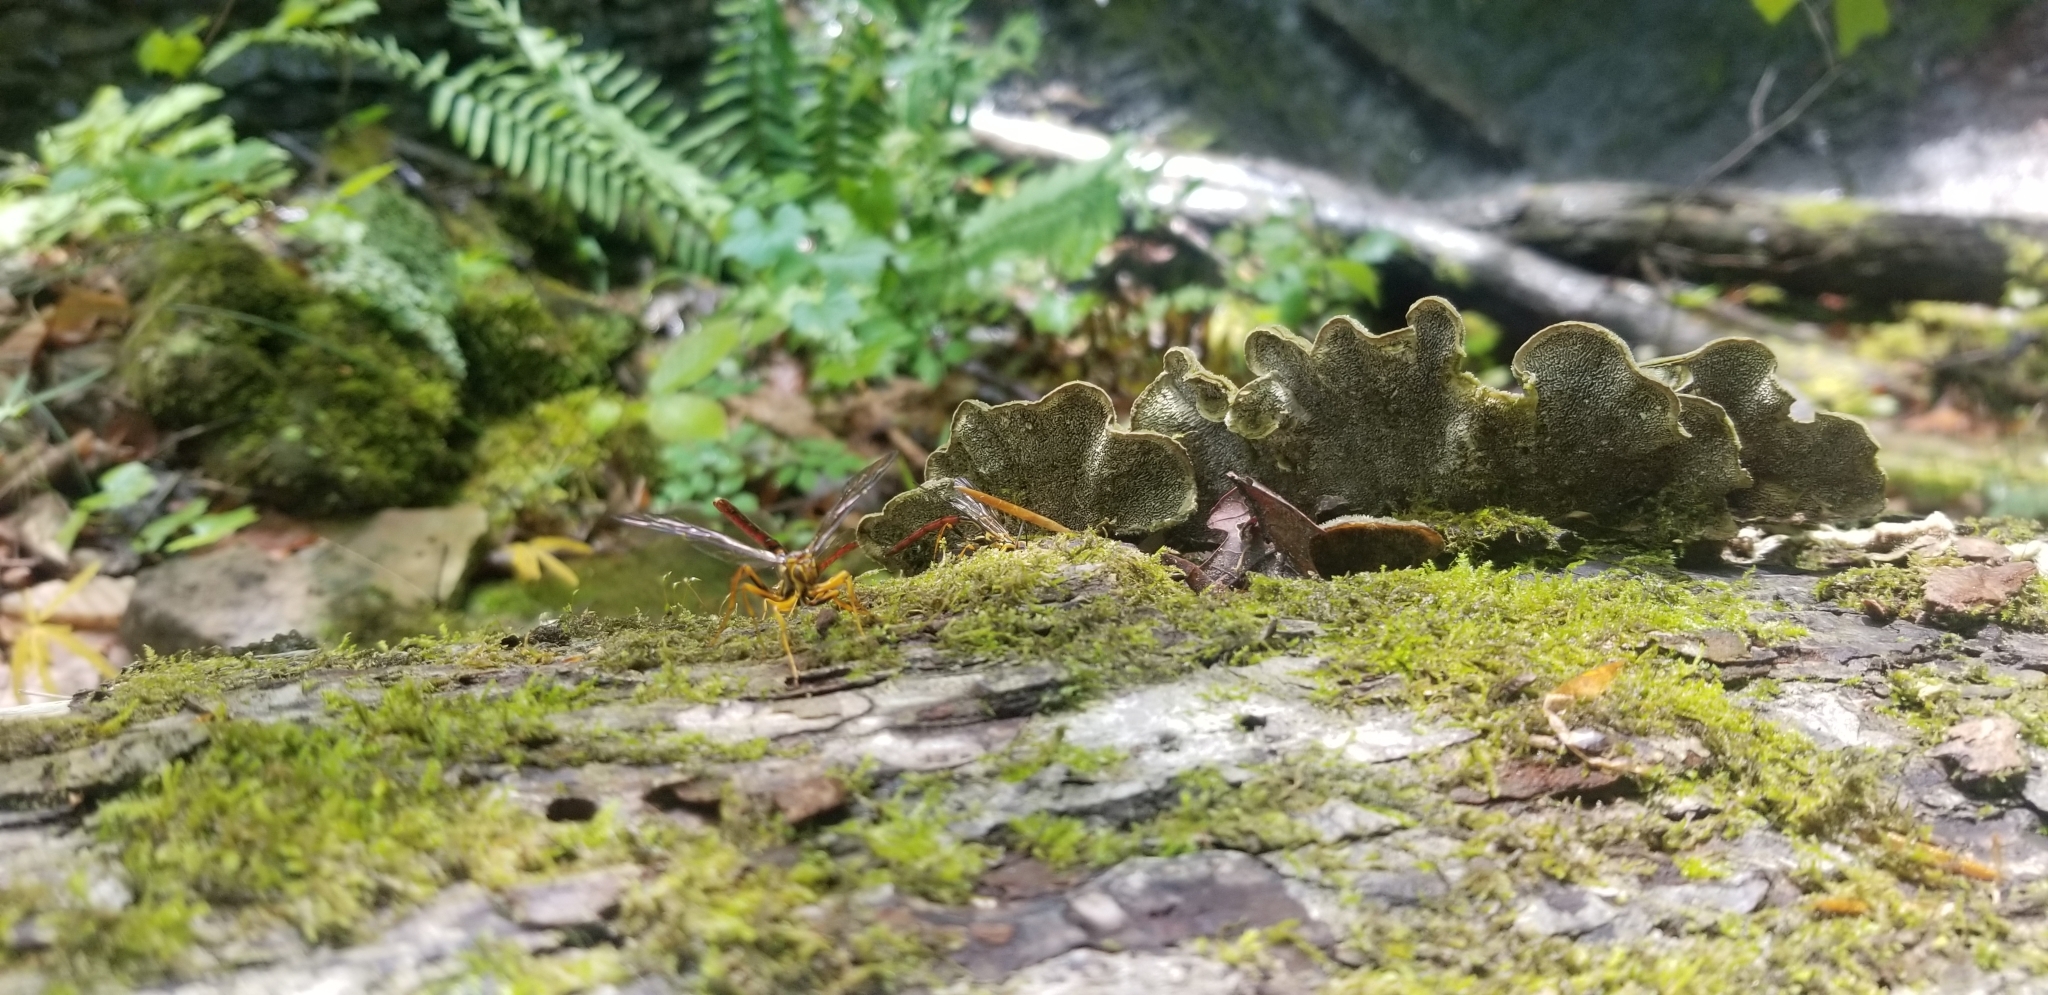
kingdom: Animalia
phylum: Arthropoda
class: Insecta
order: Hymenoptera
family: Ichneumonidae
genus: Megarhyssa
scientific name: Megarhyssa atrata
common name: Black giant ichneumonid wasp
